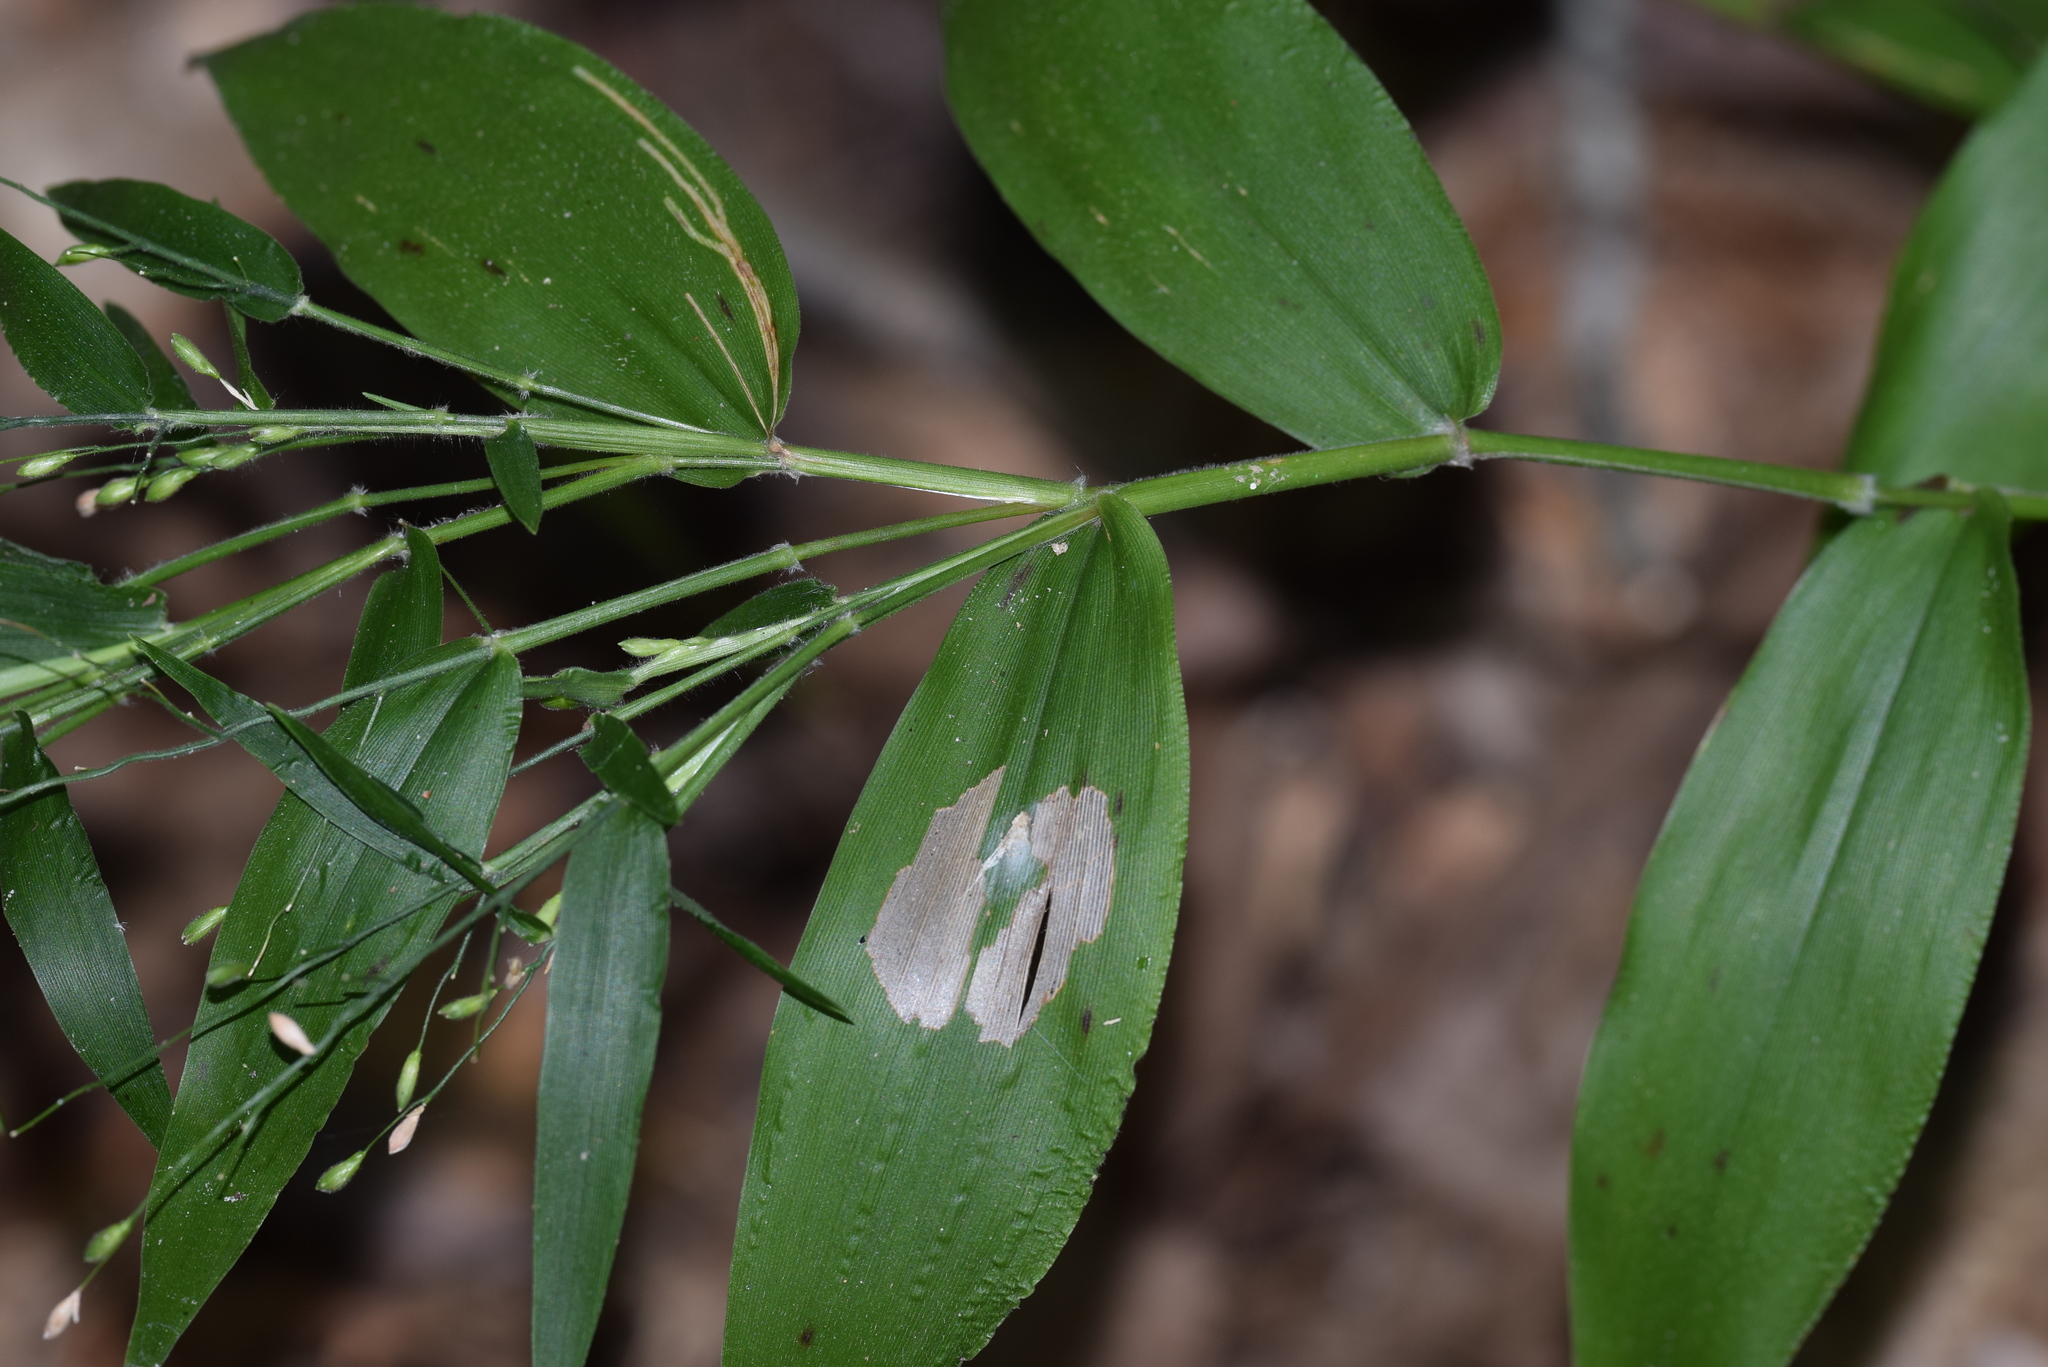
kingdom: Plantae
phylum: Tracheophyta
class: Liliopsida
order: Poales
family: Poaceae
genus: Dichanthelium
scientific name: Dichanthelium boscii
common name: Bosc's panic grass
